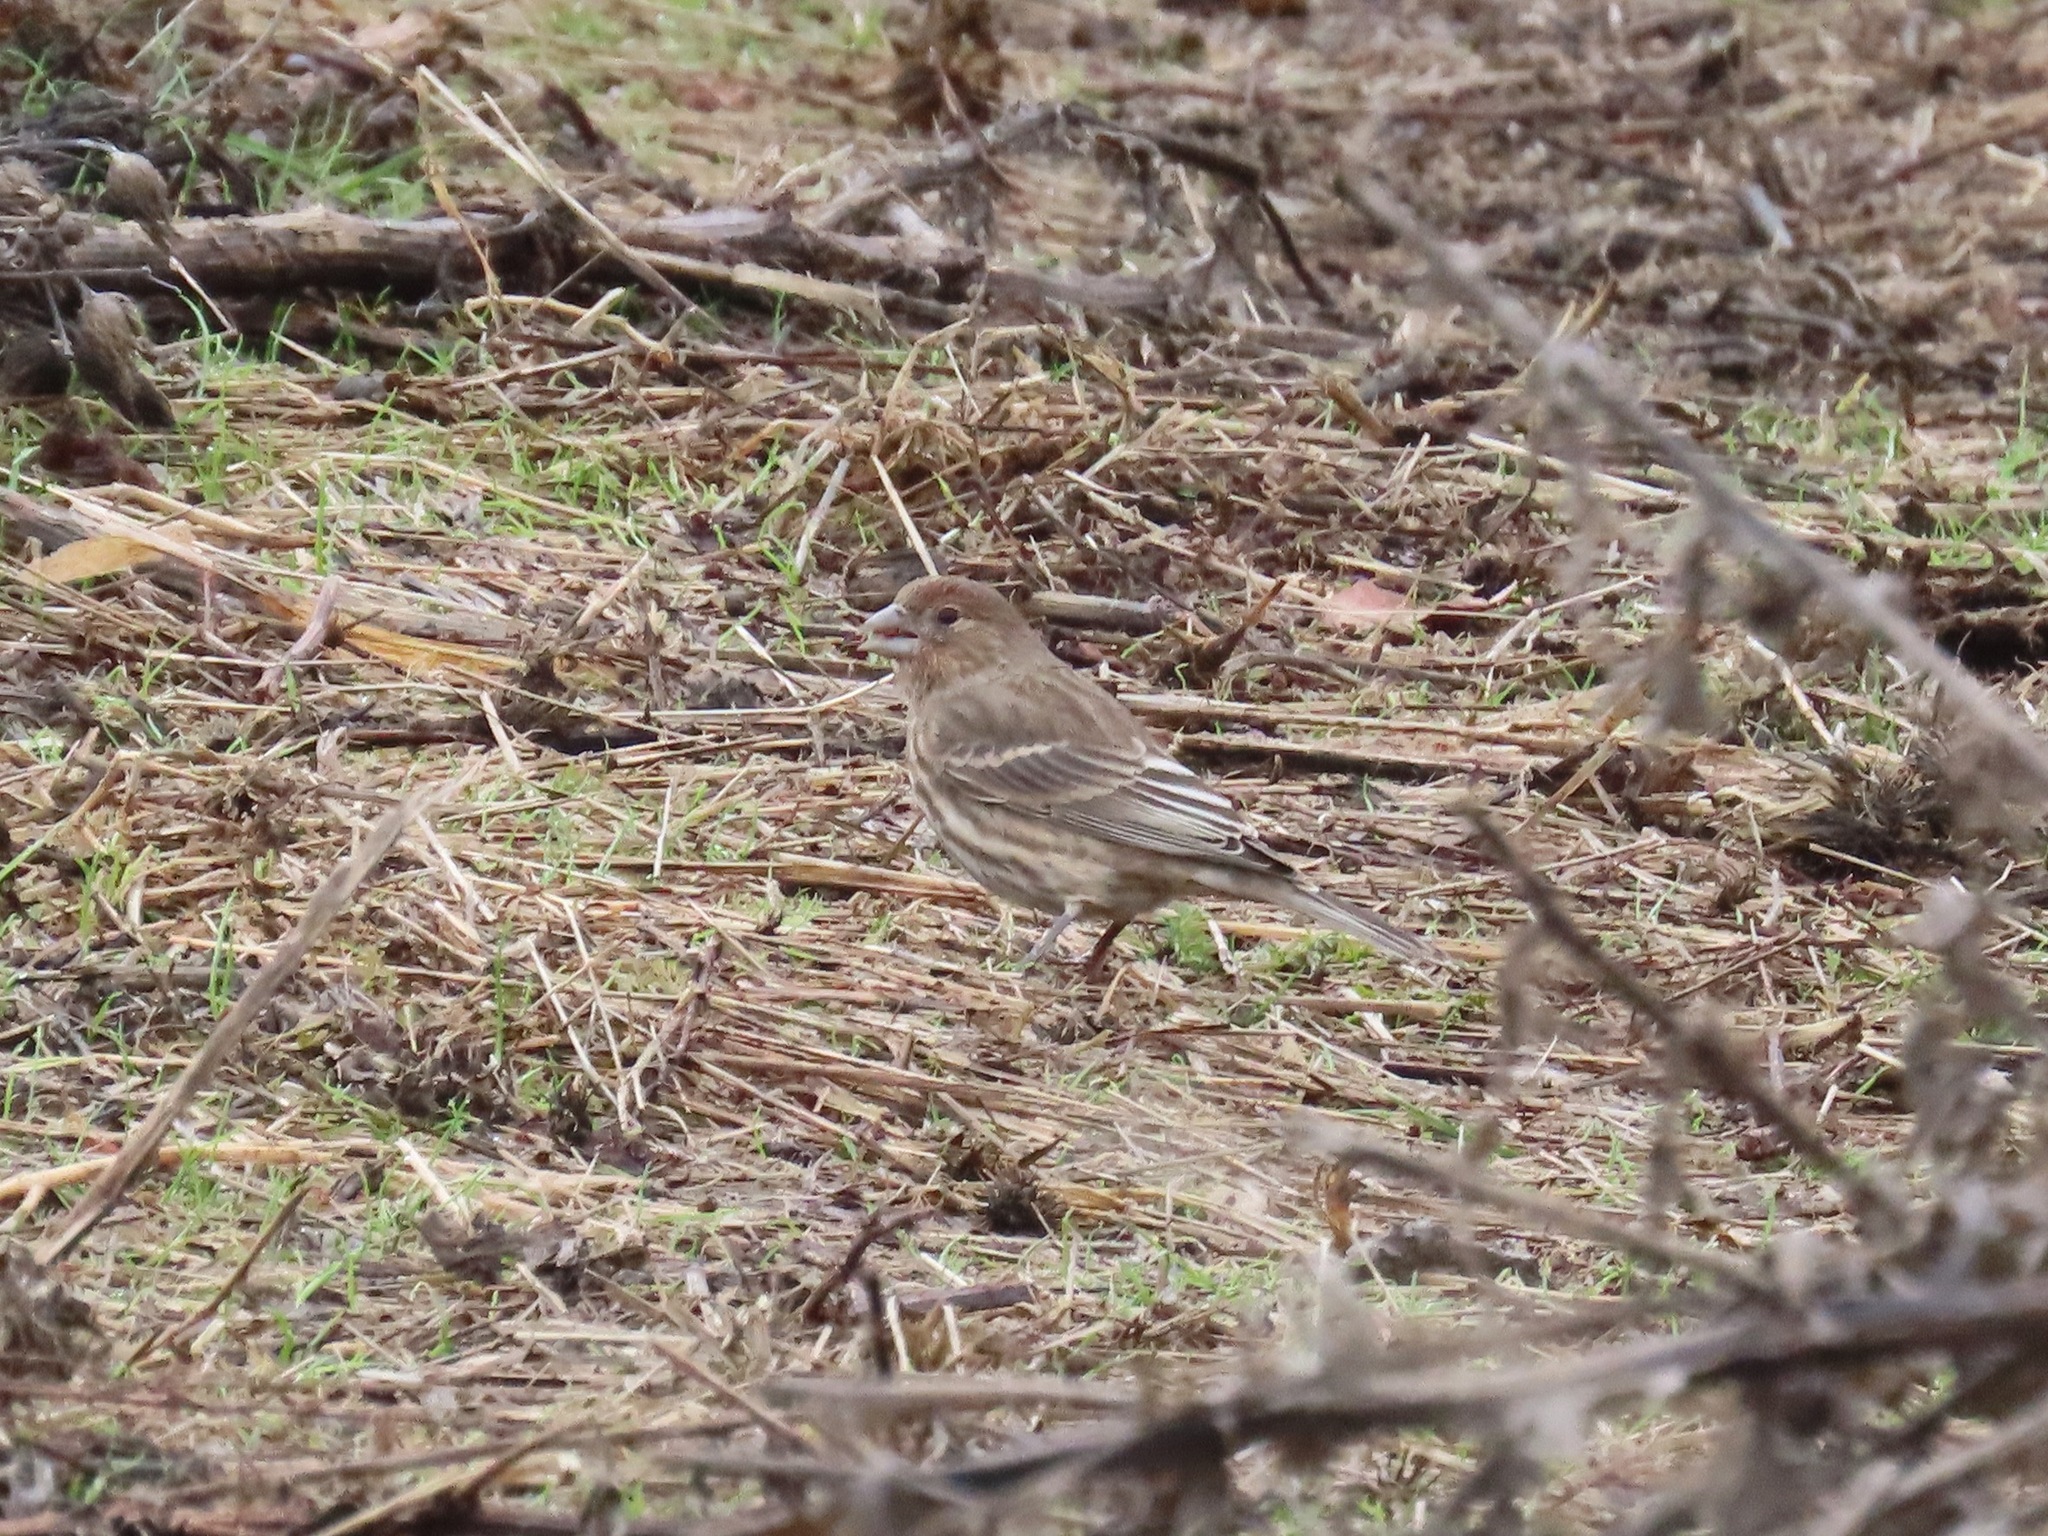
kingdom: Animalia
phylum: Chordata
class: Aves
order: Passeriformes
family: Fringillidae
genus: Haemorhous
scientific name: Haemorhous mexicanus
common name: House finch
